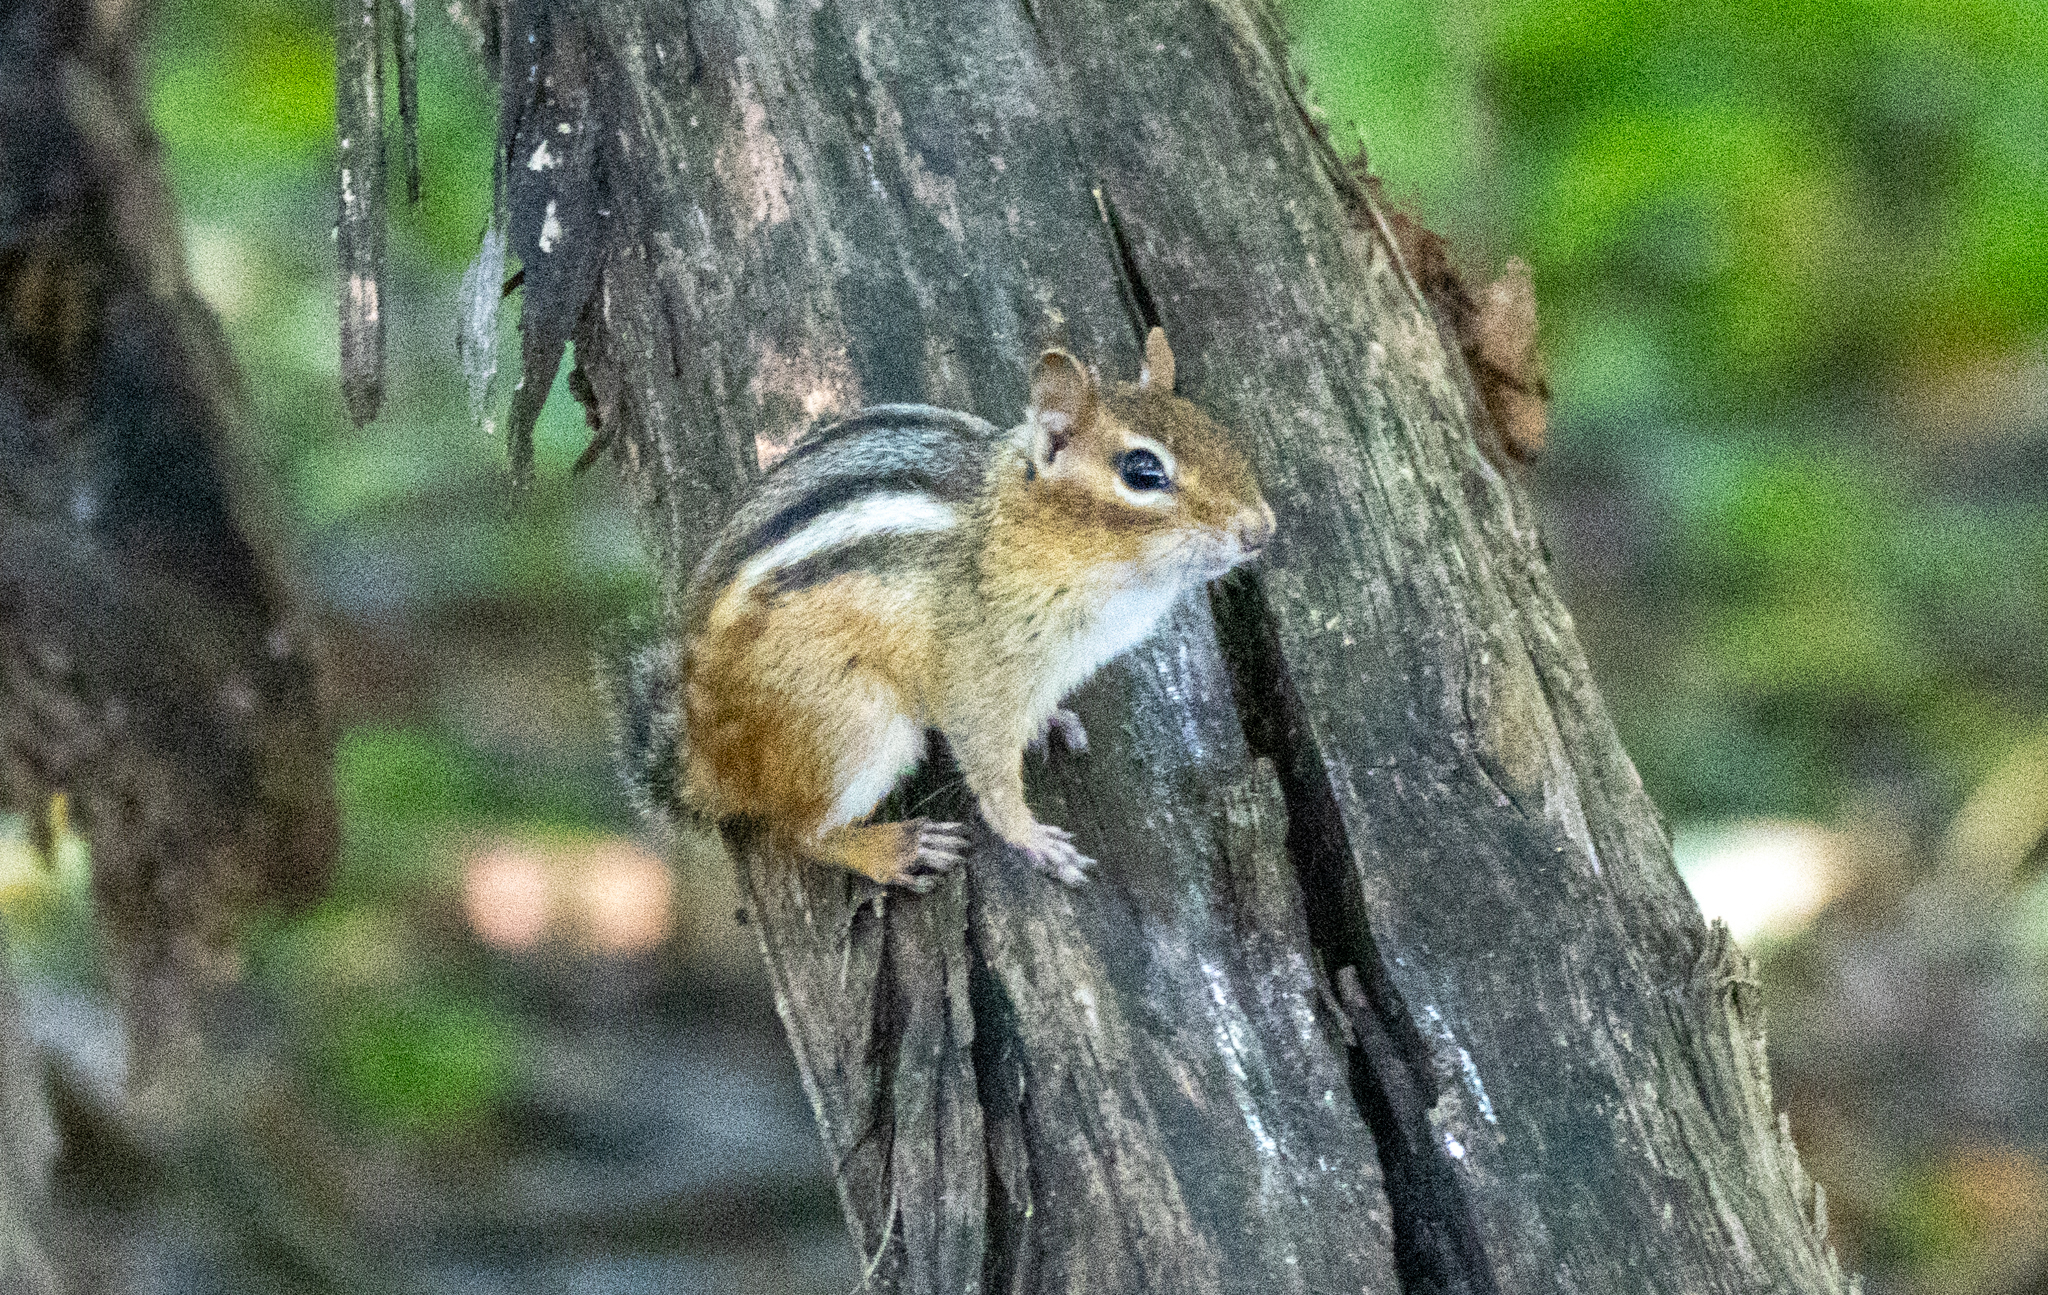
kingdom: Animalia
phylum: Chordata
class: Mammalia
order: Rodentia
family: Sciuridae
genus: Tamias
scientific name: Tamias striatus
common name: Eastern chipmunk
